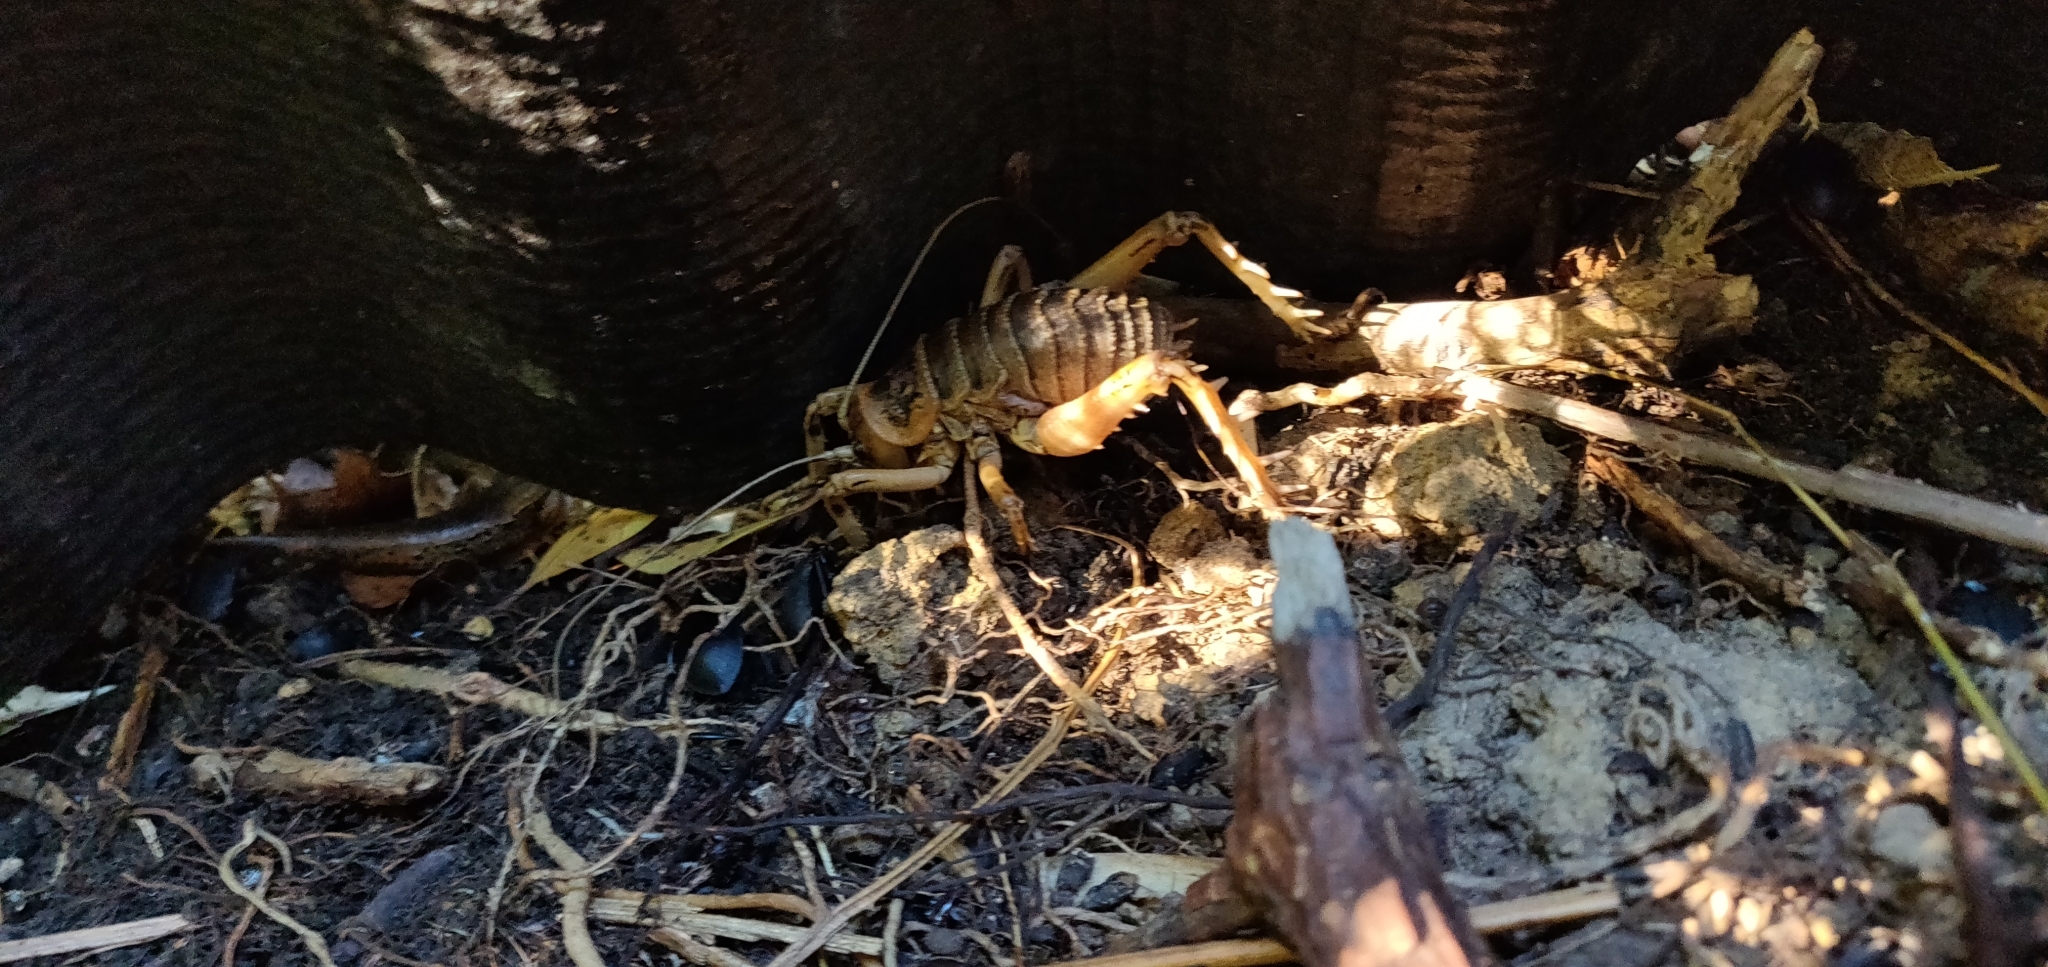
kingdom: Animalia
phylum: Arthropoda
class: Insecta
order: Orthoptera
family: Anostostomatidae
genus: Deinacrida
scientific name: Deinacrida rugosa
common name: Stephens island weta
